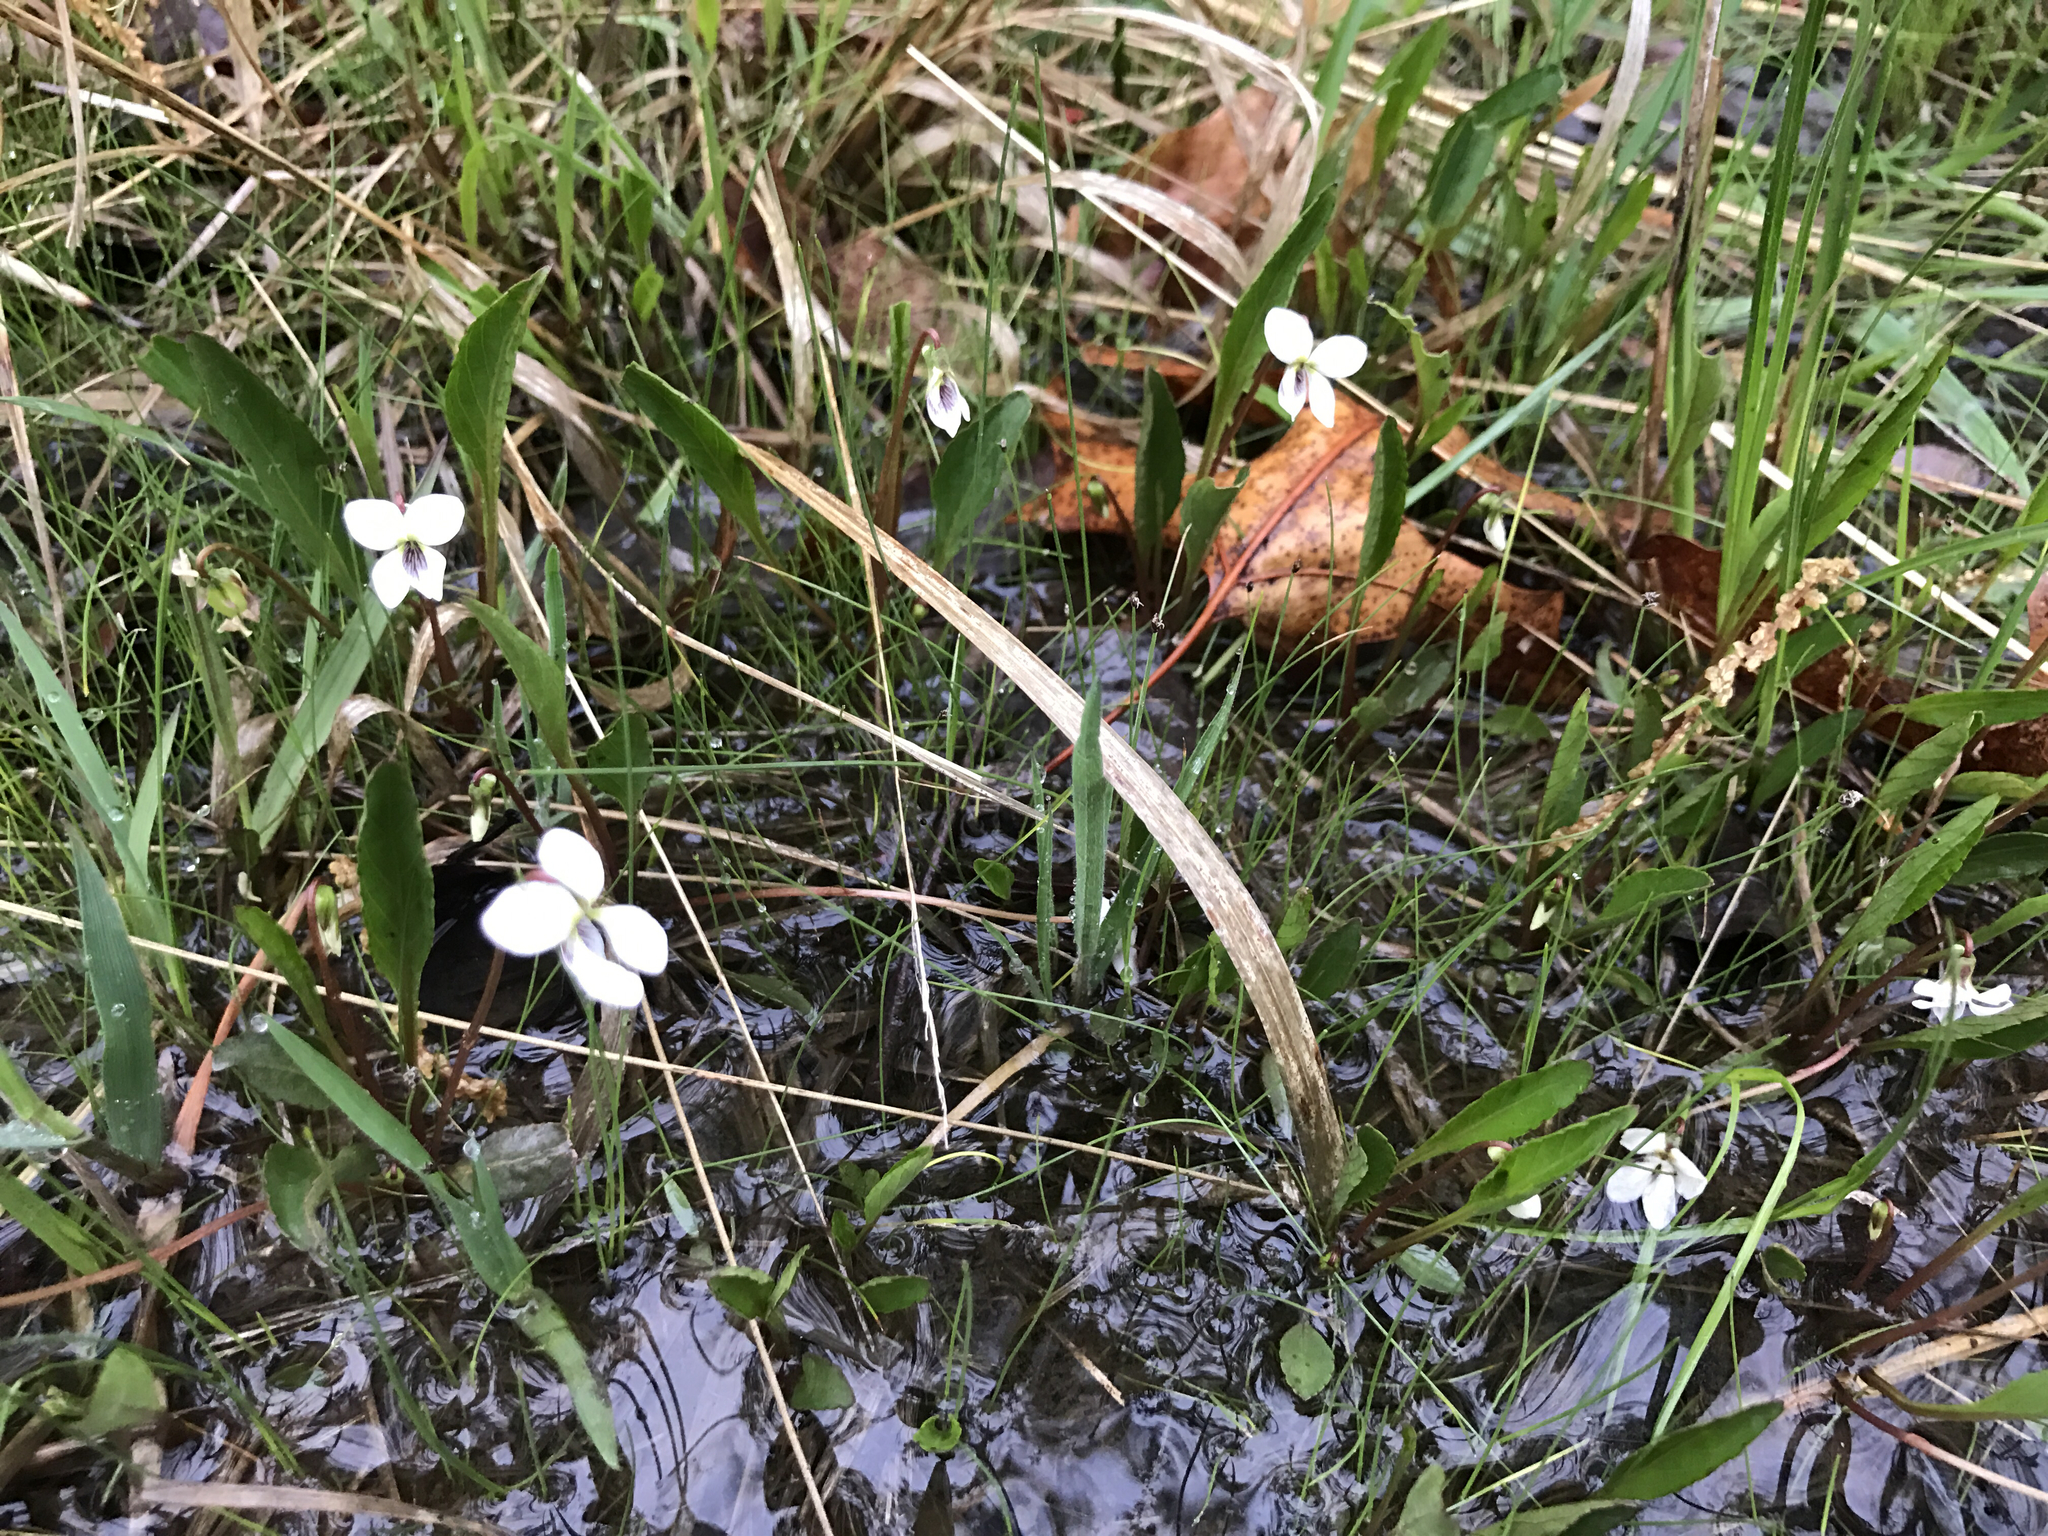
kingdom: Plantae
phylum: Tracheophyta
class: Magnoliopsida
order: Malpighiales
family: Violaceae
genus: Viola
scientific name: Viola lanceolata
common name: Bog white violet
